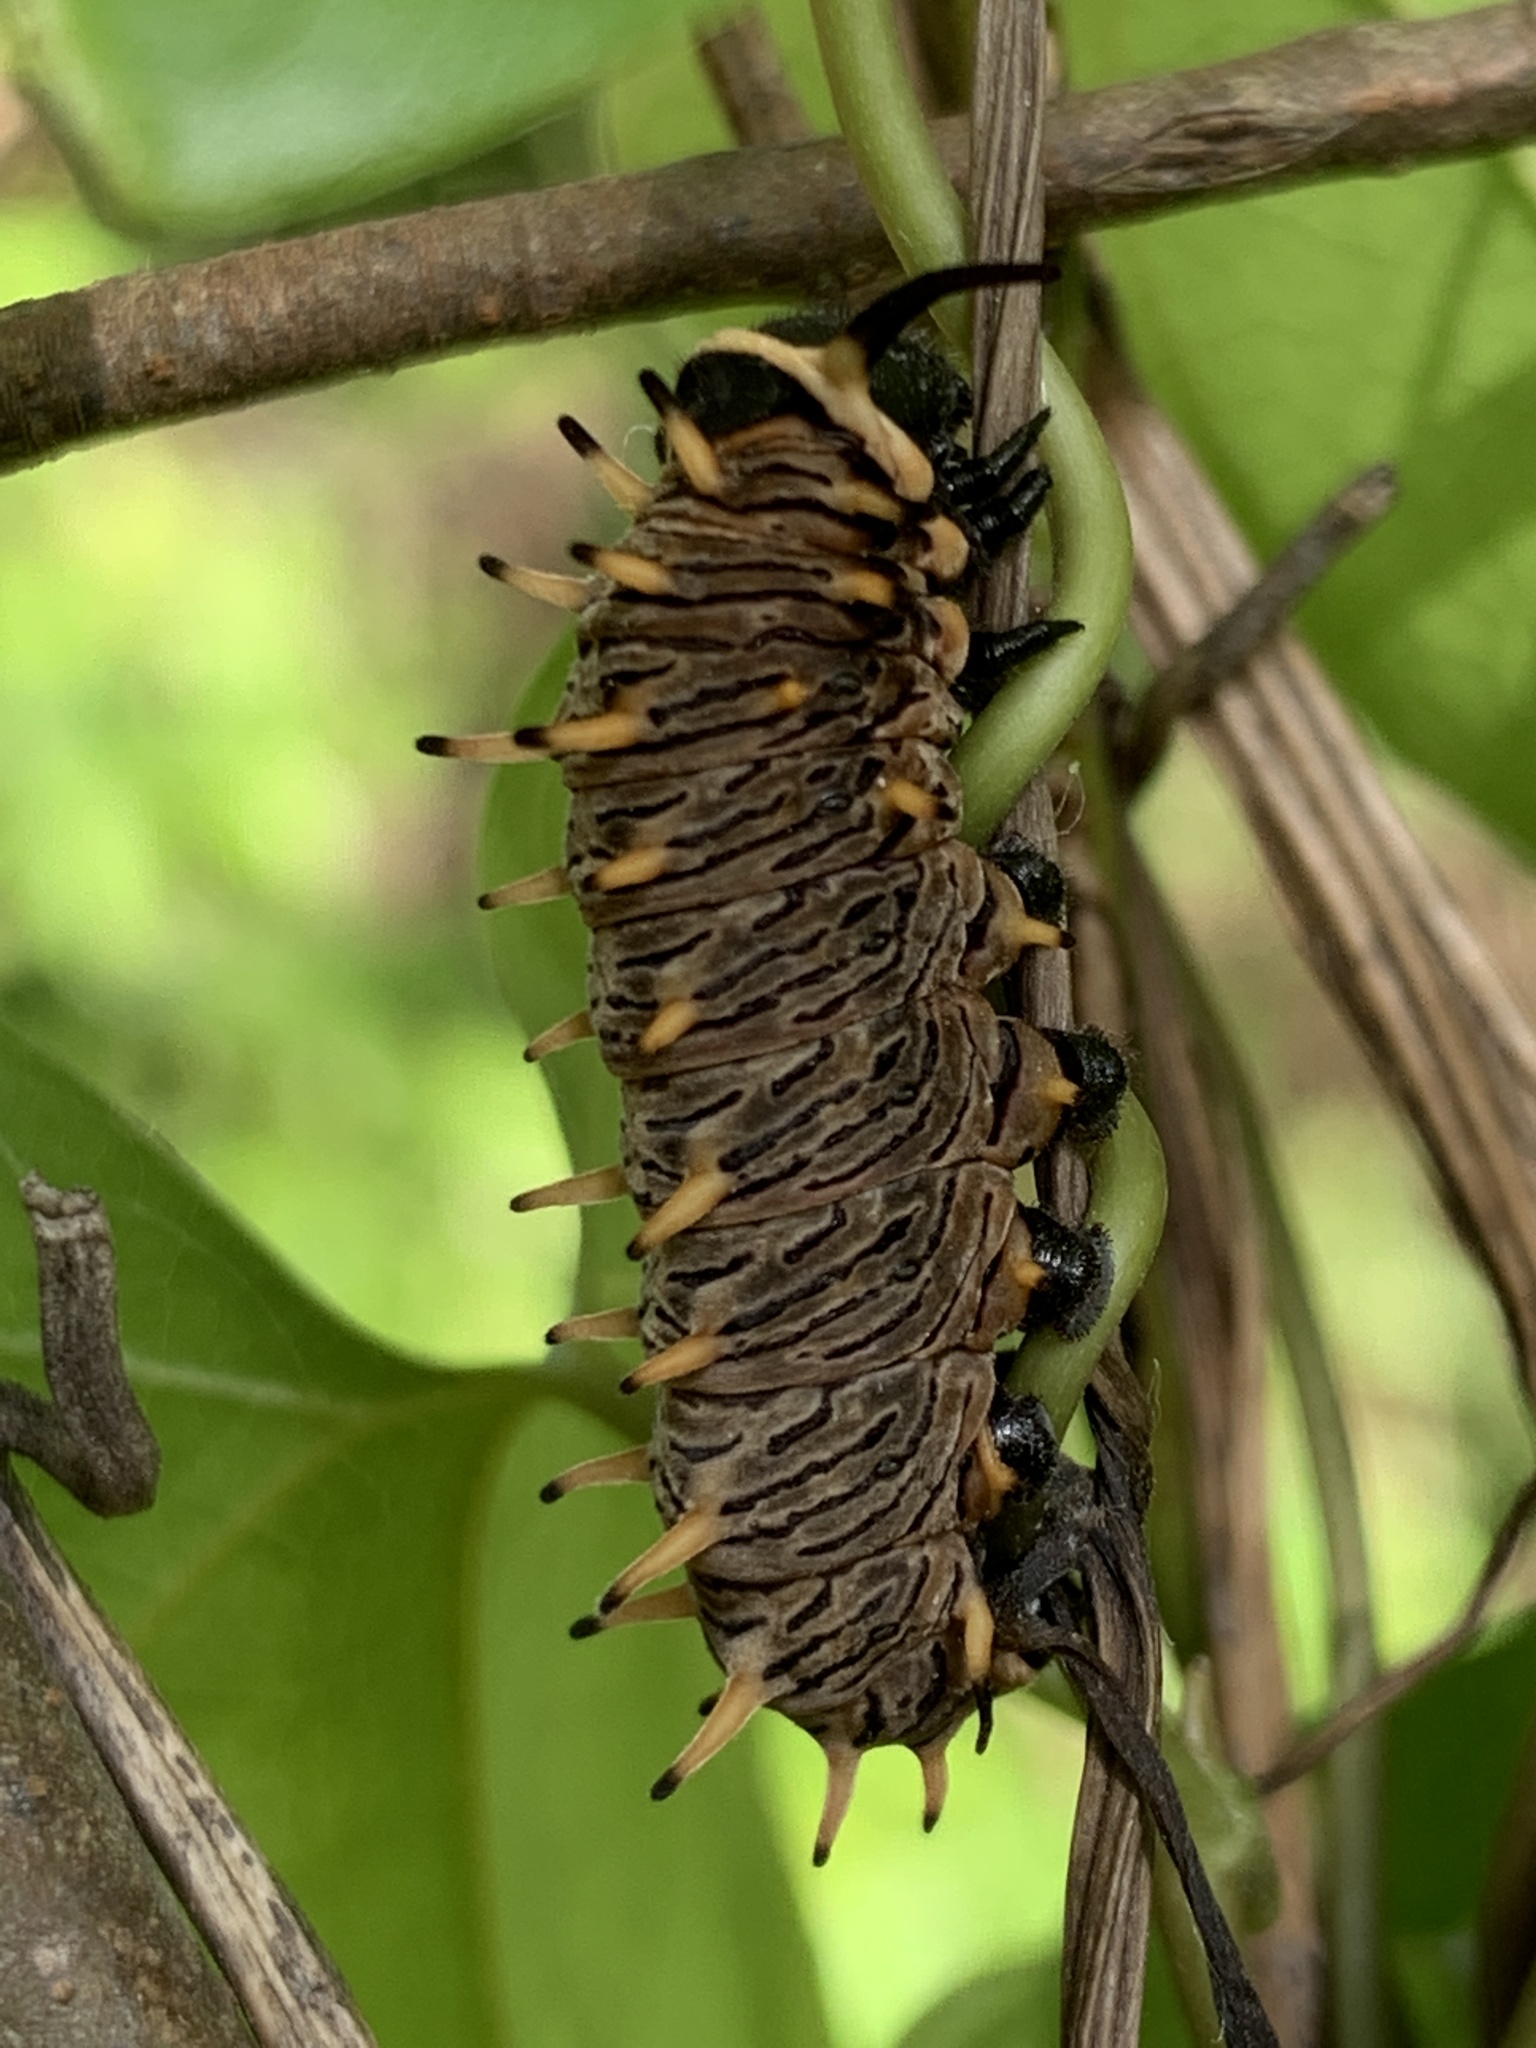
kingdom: Animalia
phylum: Arthropoda
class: Insecta
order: Lepidoptera
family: Papilionidae
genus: Battus
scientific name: Battus polydamas
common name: Polydamas swallowtail
